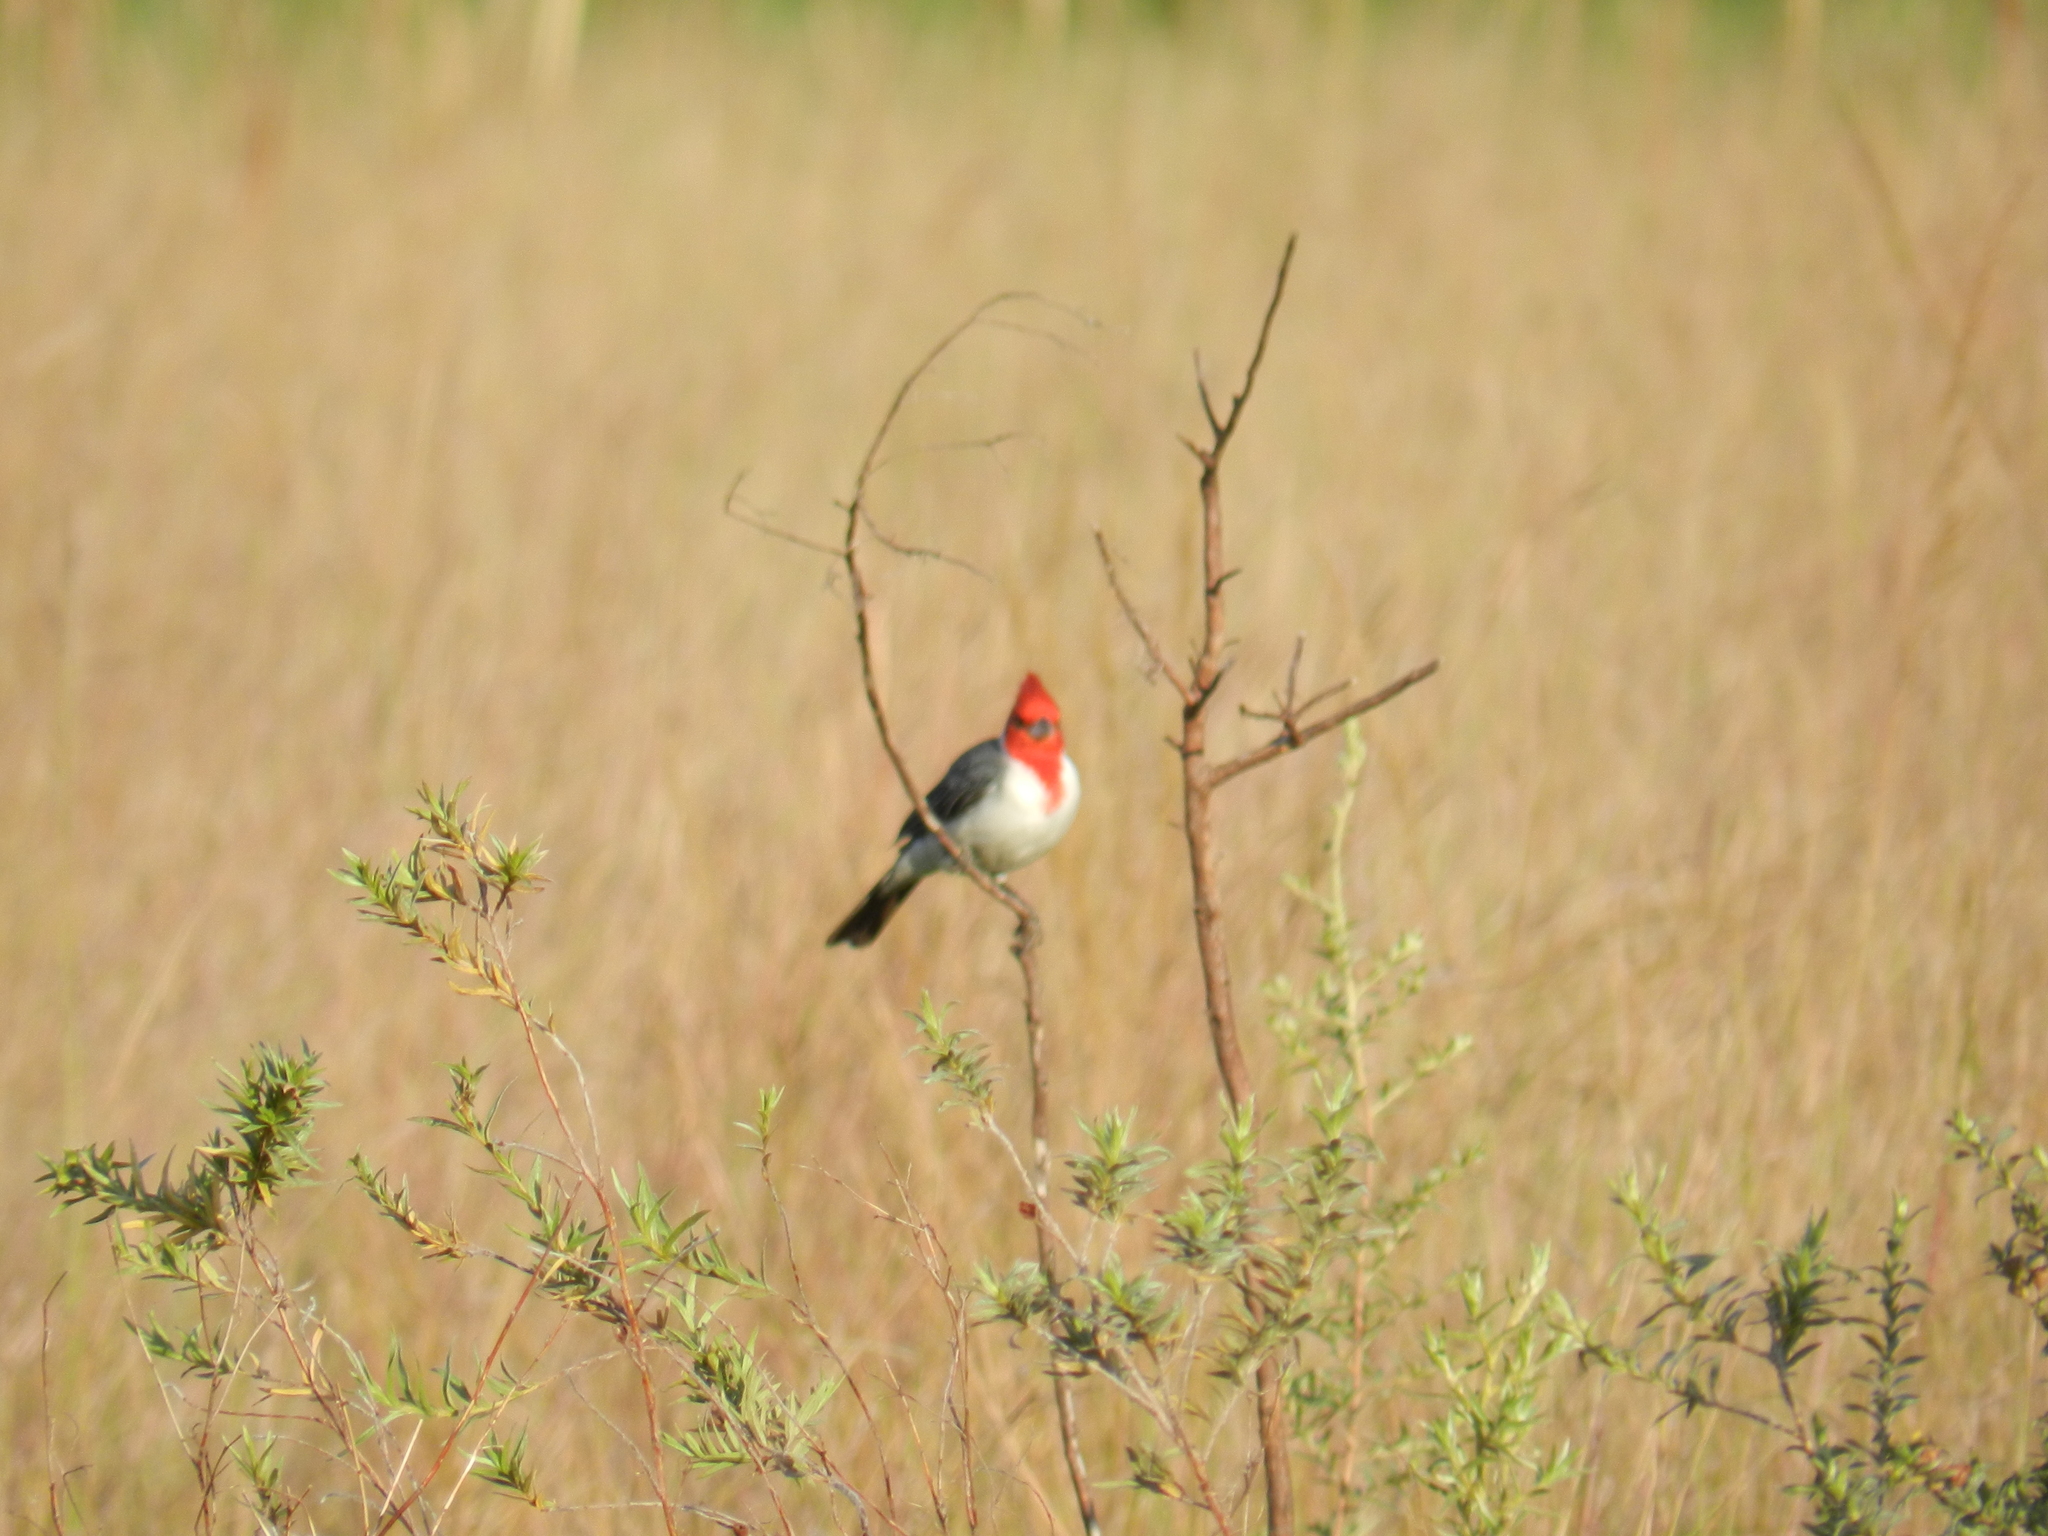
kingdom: Animalia
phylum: Chordata
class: Aves
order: Passeriformes
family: Thraupidae
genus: Paroaria
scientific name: Paroaria coronata
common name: Red-crested cardinal
